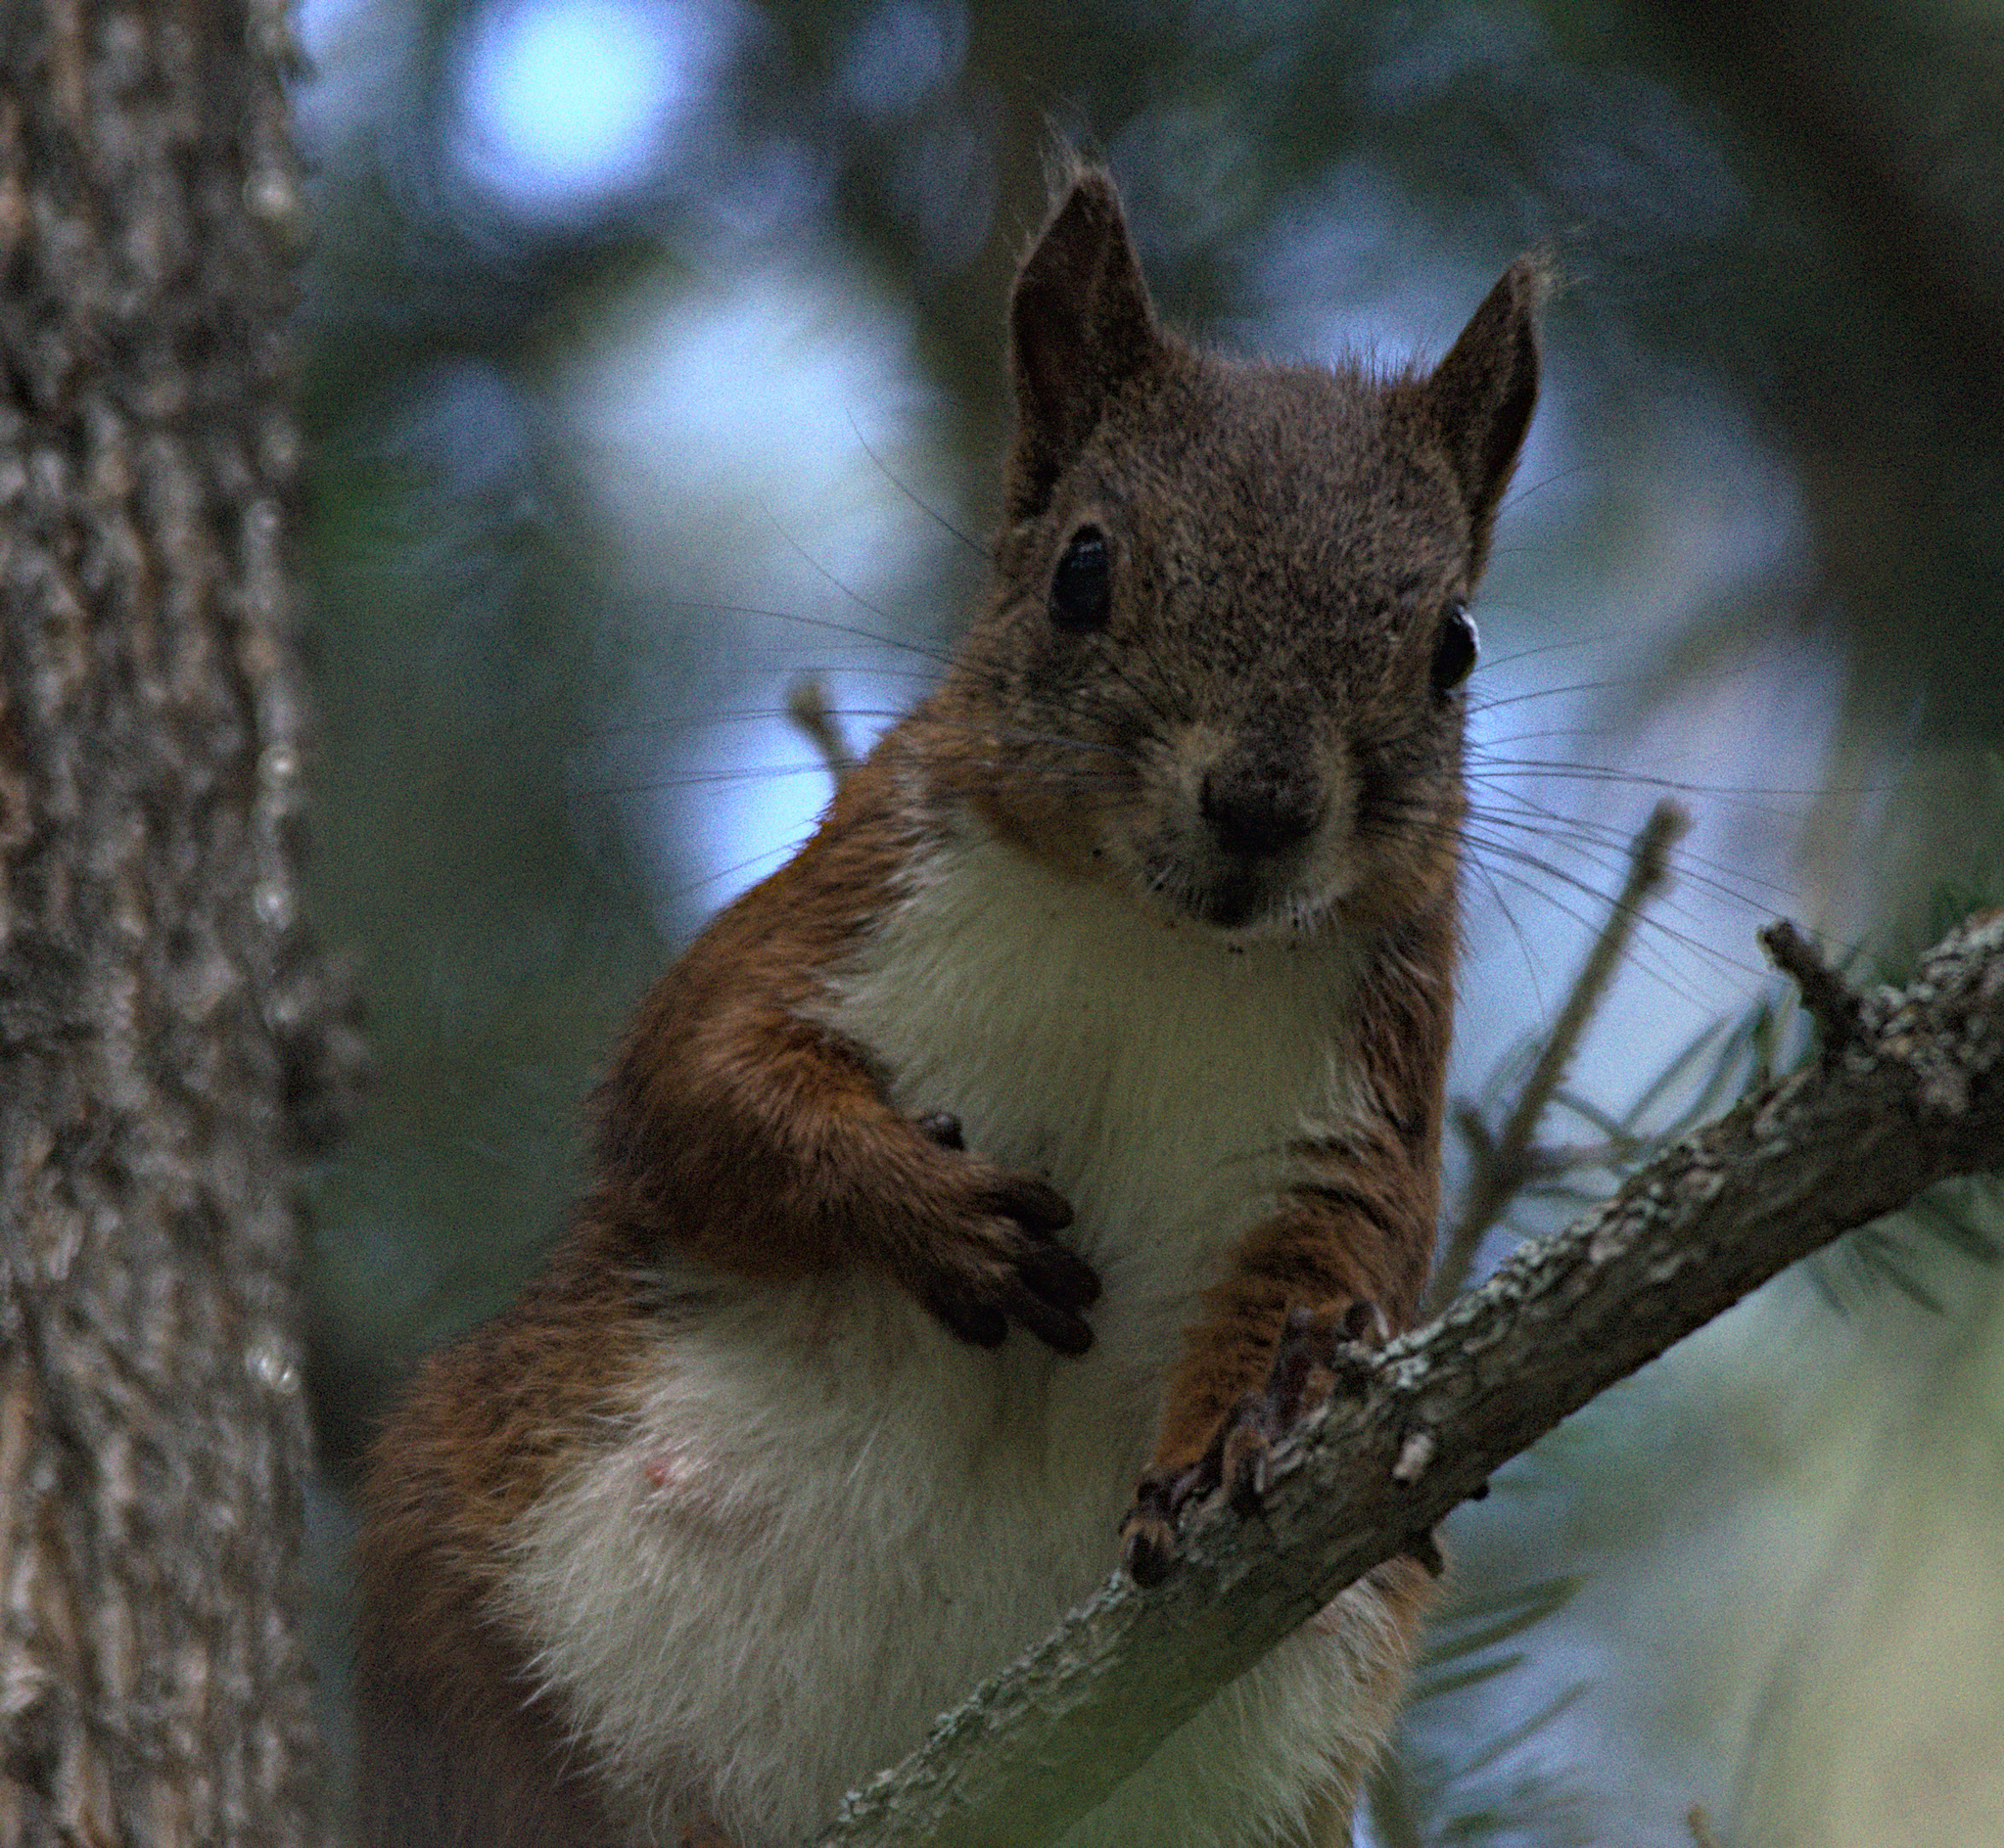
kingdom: Animalia
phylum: Chordata
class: Mammalia
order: Rodentia
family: Sciuridae
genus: Sciurus
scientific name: Sciurus vulgaris
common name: Eurasian red squirrel
